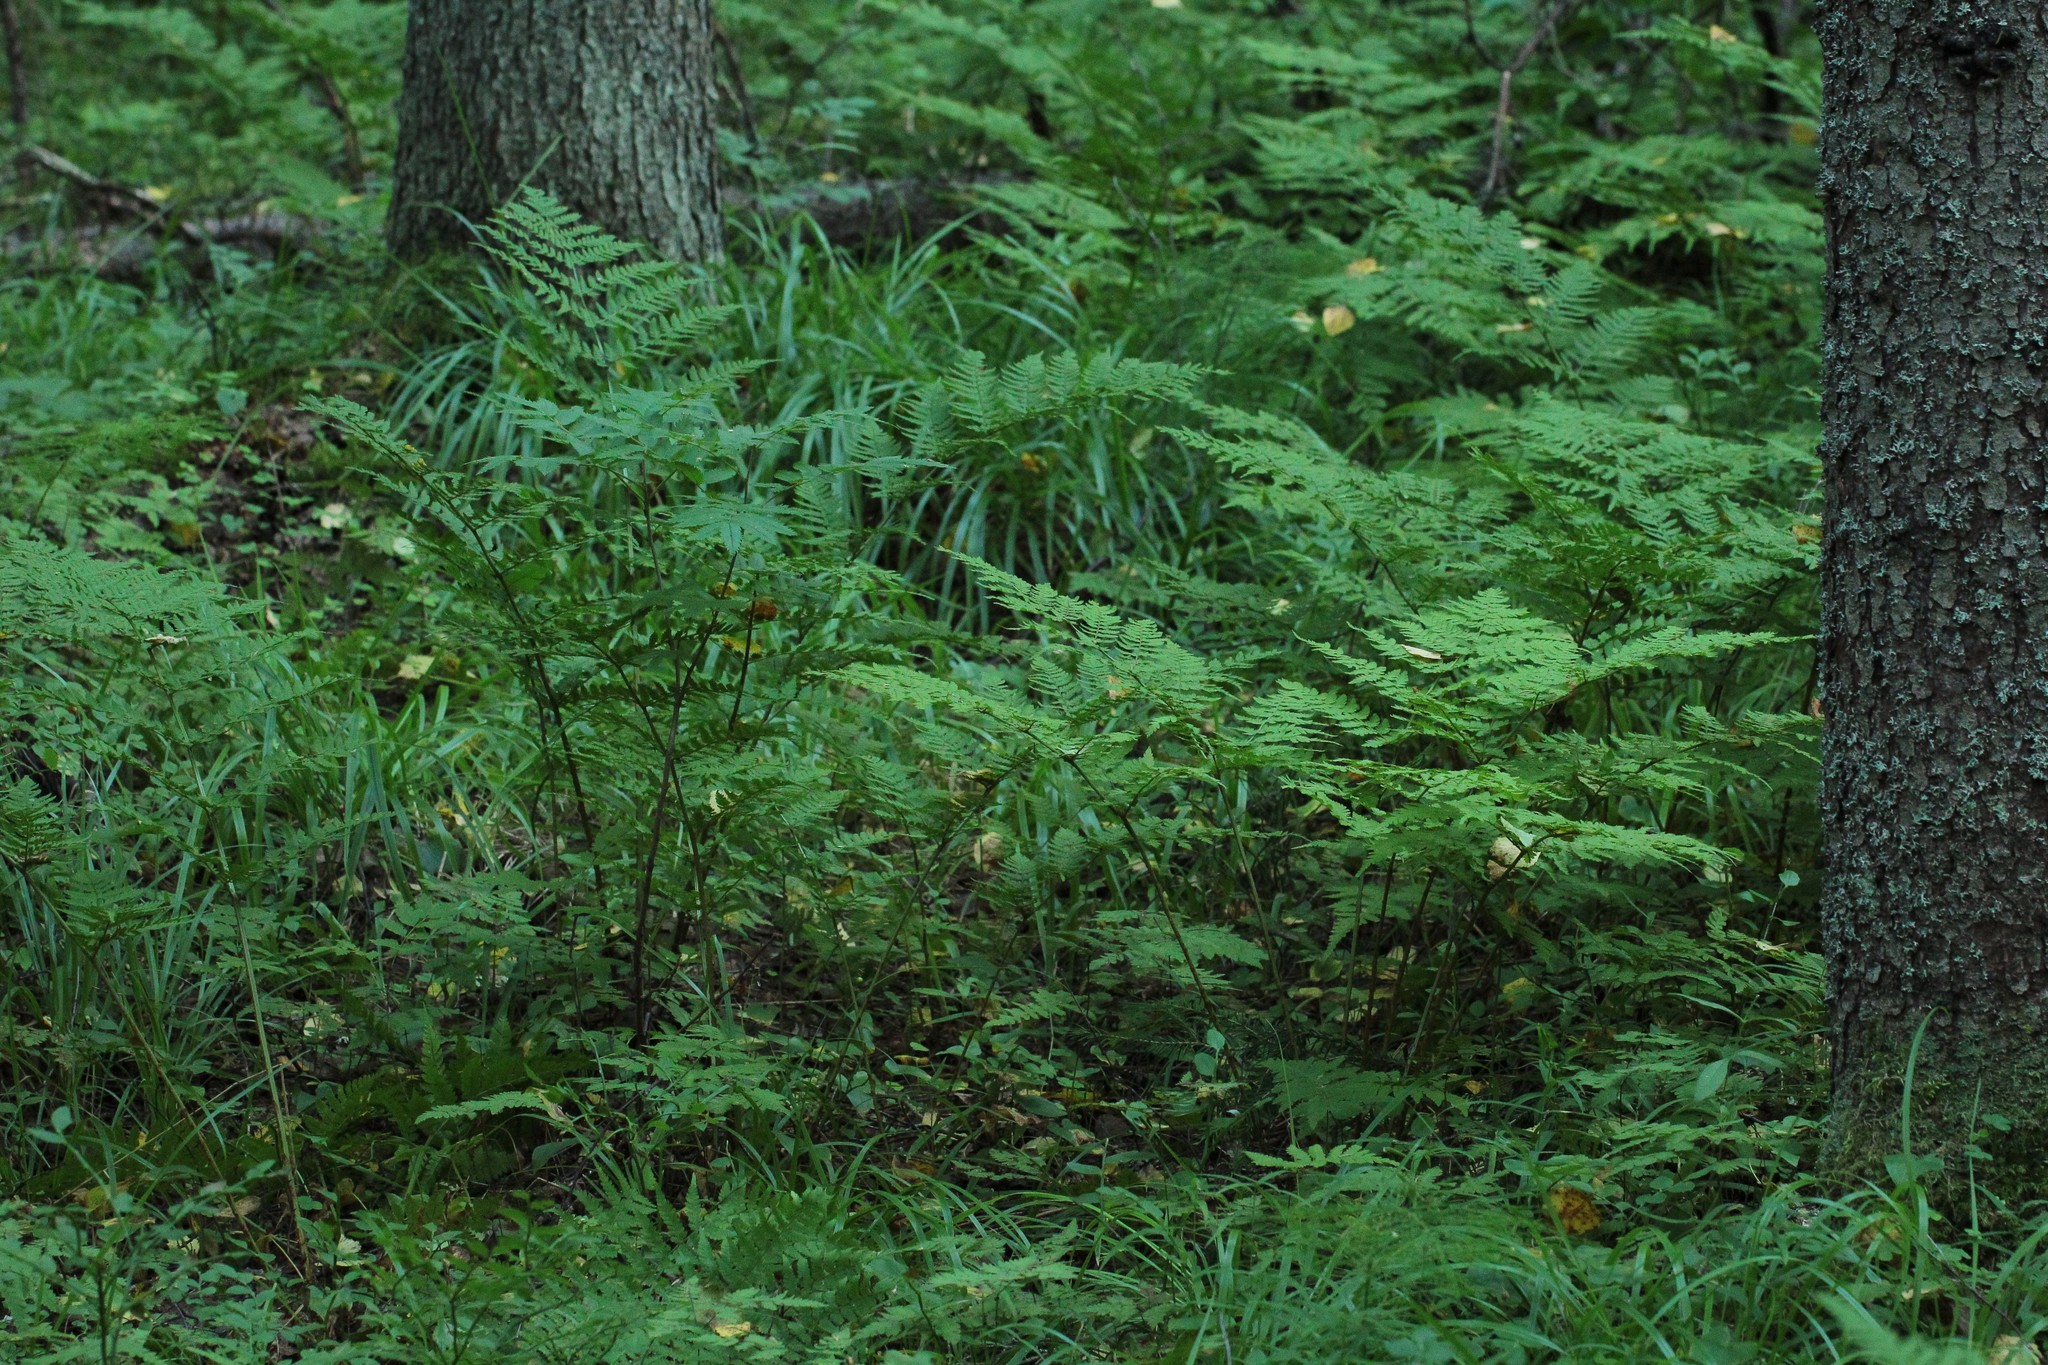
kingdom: Plantae
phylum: Tracheophyta
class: Polypodiopsida
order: Polypodiales
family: Dryopteridaceae
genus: Dryopteris
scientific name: Dryopteris expansa
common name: Northern buckler fern
